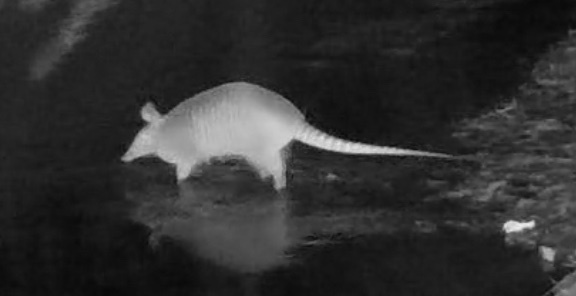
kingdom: Animalia
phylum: Chordata
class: Mammalia
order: Cingulata
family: Dasypodidae
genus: Dasypus
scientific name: Dasypus novemcinctus
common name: Nine-banded armadillo
